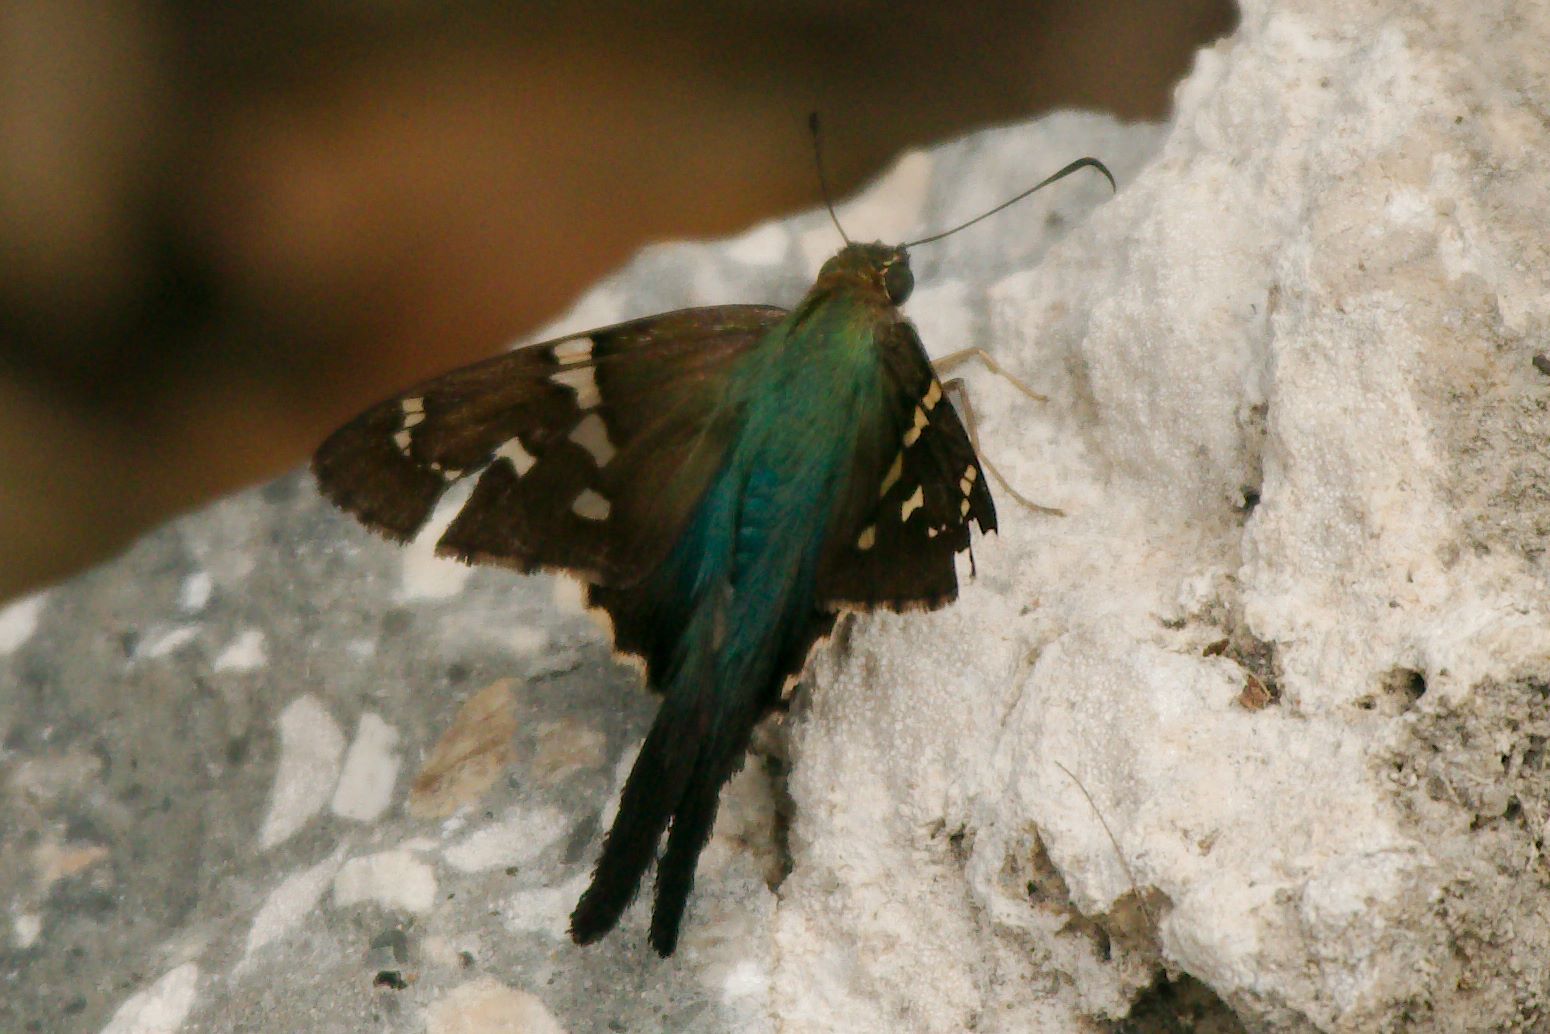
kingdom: Animalia
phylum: Arthropoda
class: Insecta
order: Lepidoptera
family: Hesperiidae
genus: Urbanus
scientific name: Urbanus proteus
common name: Long-tailed skipper
